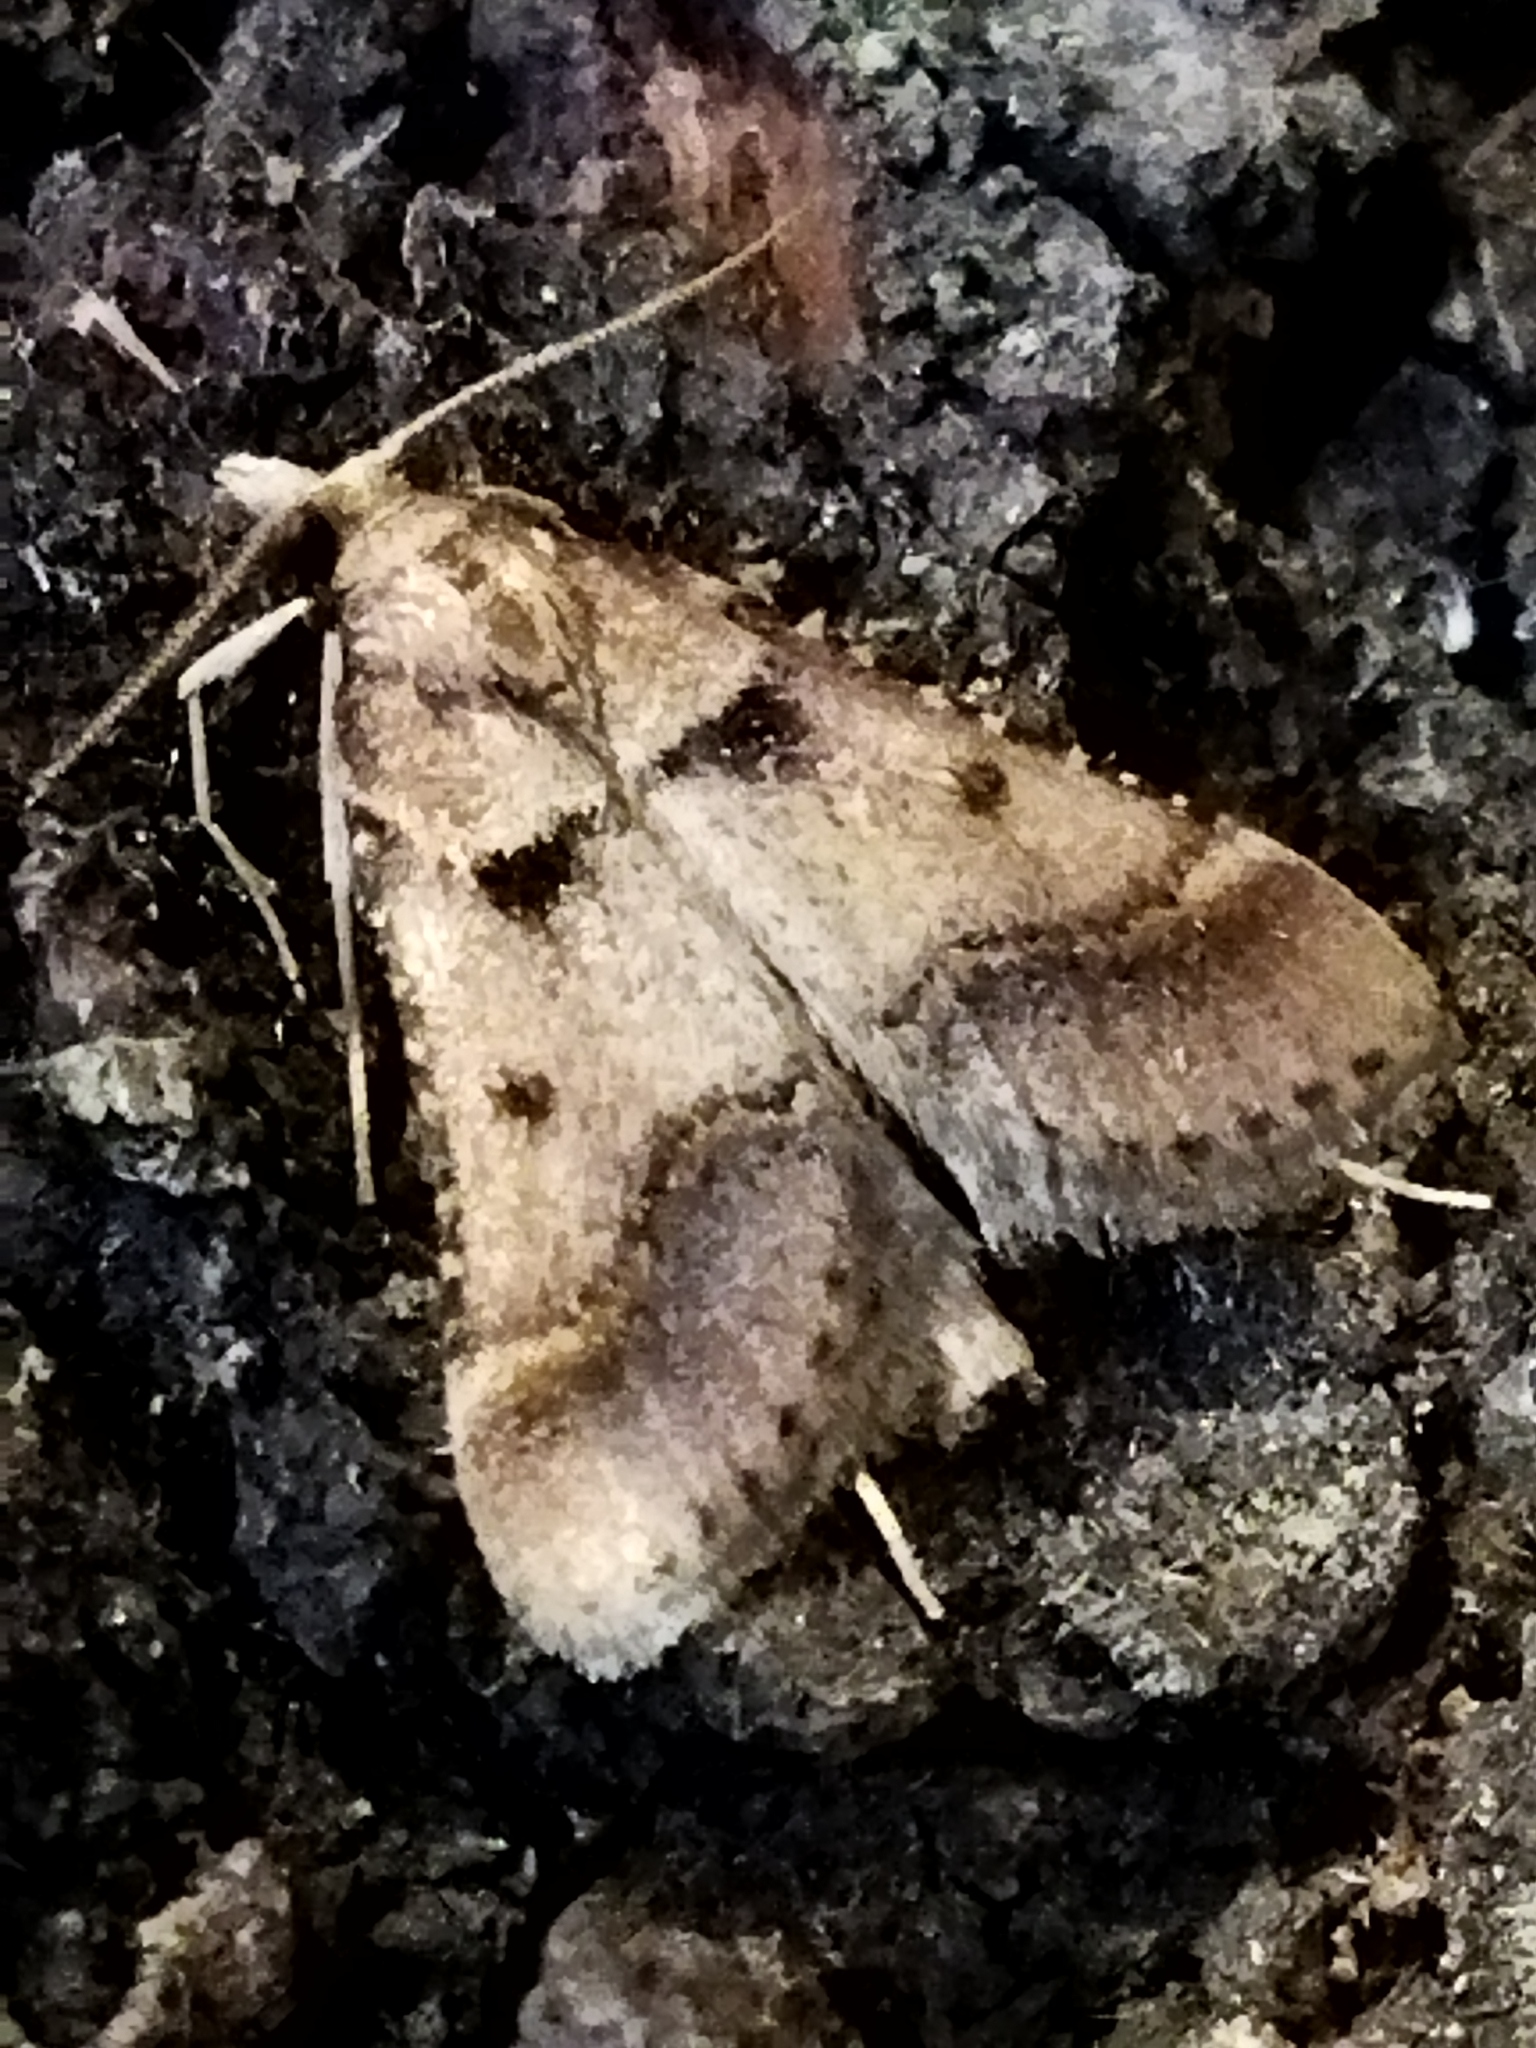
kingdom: Animalia
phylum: Arthropoda
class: Insecta
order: Lepidoptera
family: Pyralidae
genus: Stemmatophora
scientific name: Stemmatophora brunnealis
